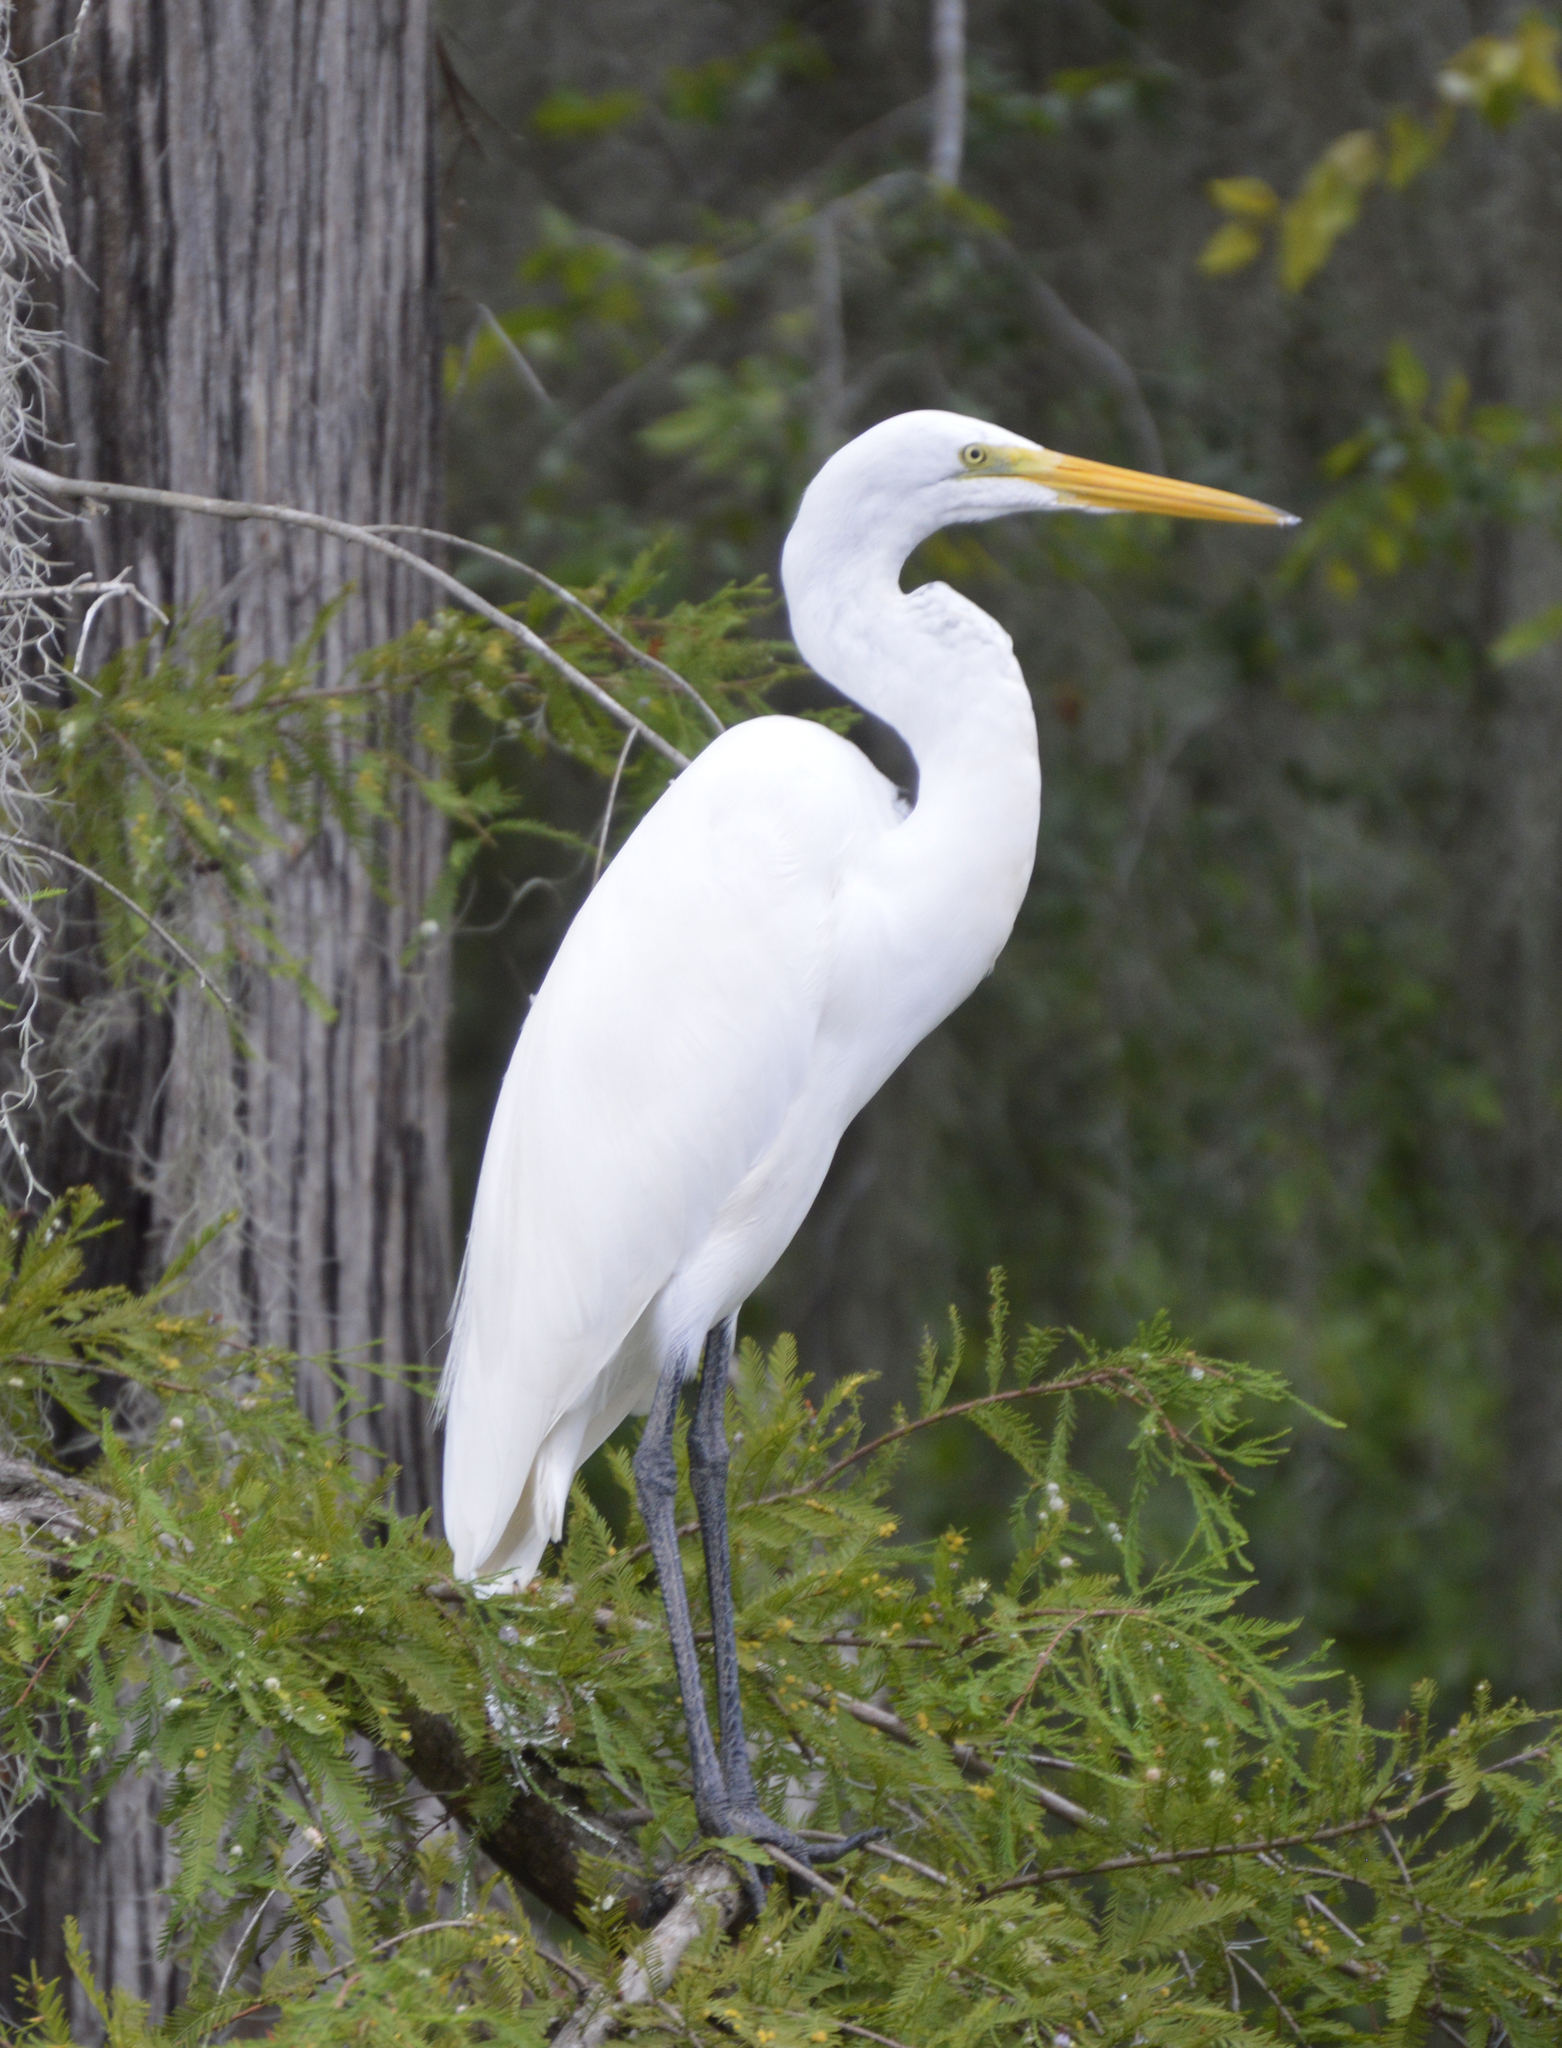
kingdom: Animalia
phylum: Chordata
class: Aves
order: Pelecaniformes
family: Ardeidae
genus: Ardea
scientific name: Ardea alba
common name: Great egret
